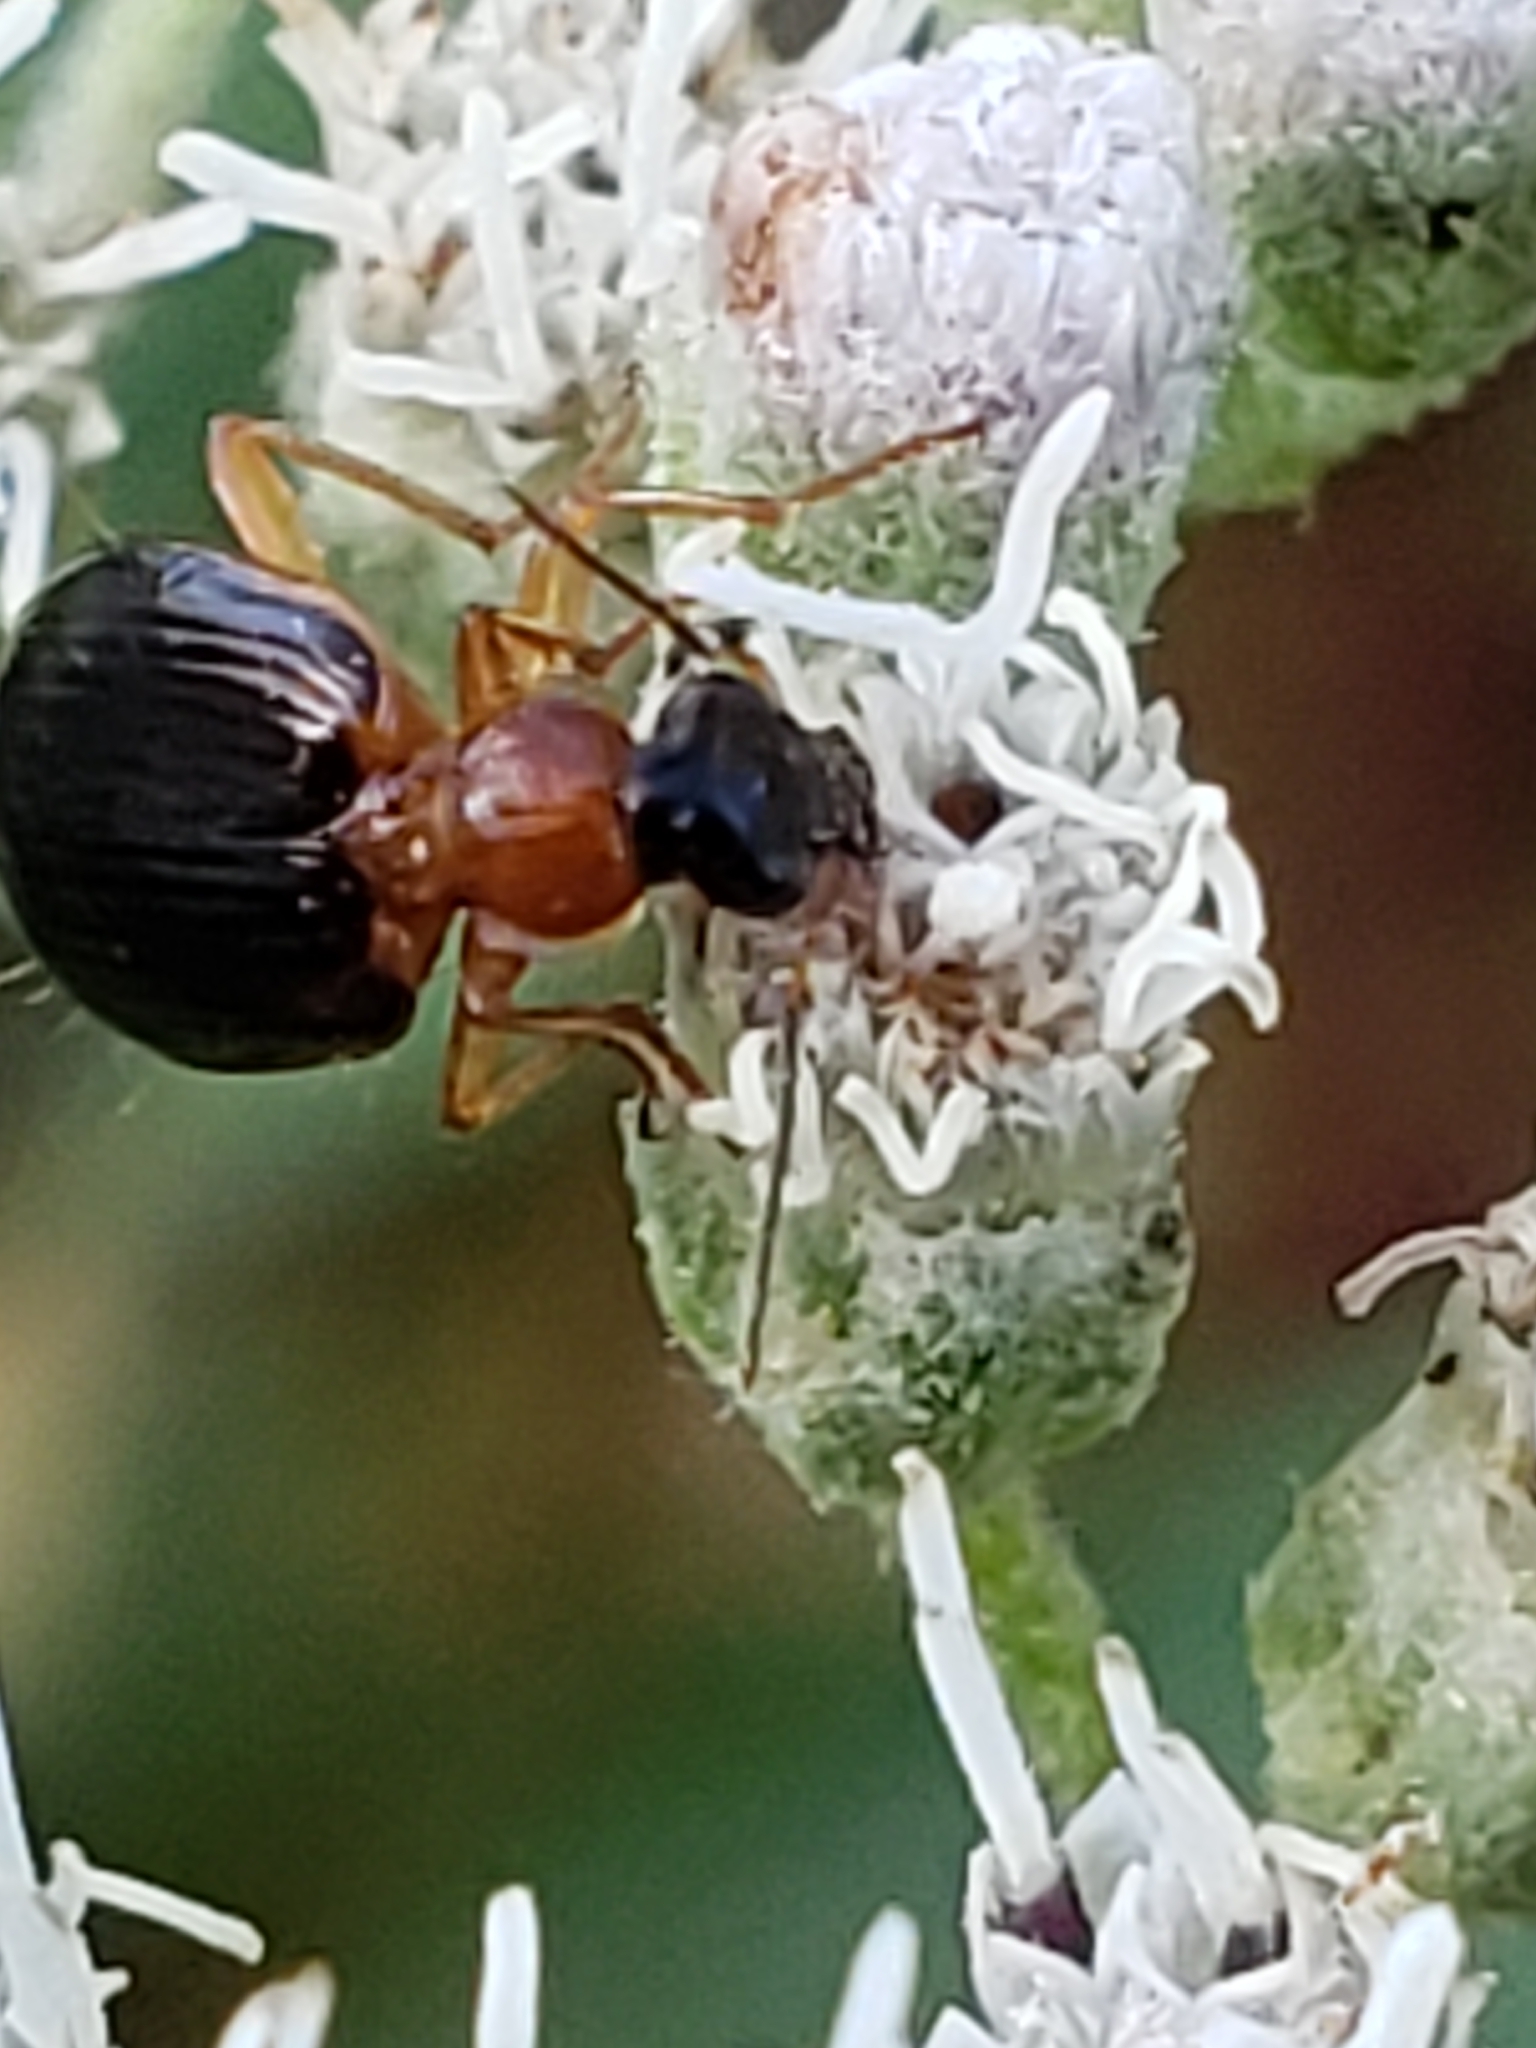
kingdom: Animalia
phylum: Arthropoda
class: Insecta
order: Coleoptera
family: Carabidae
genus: Lebia
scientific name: Lebia analis
